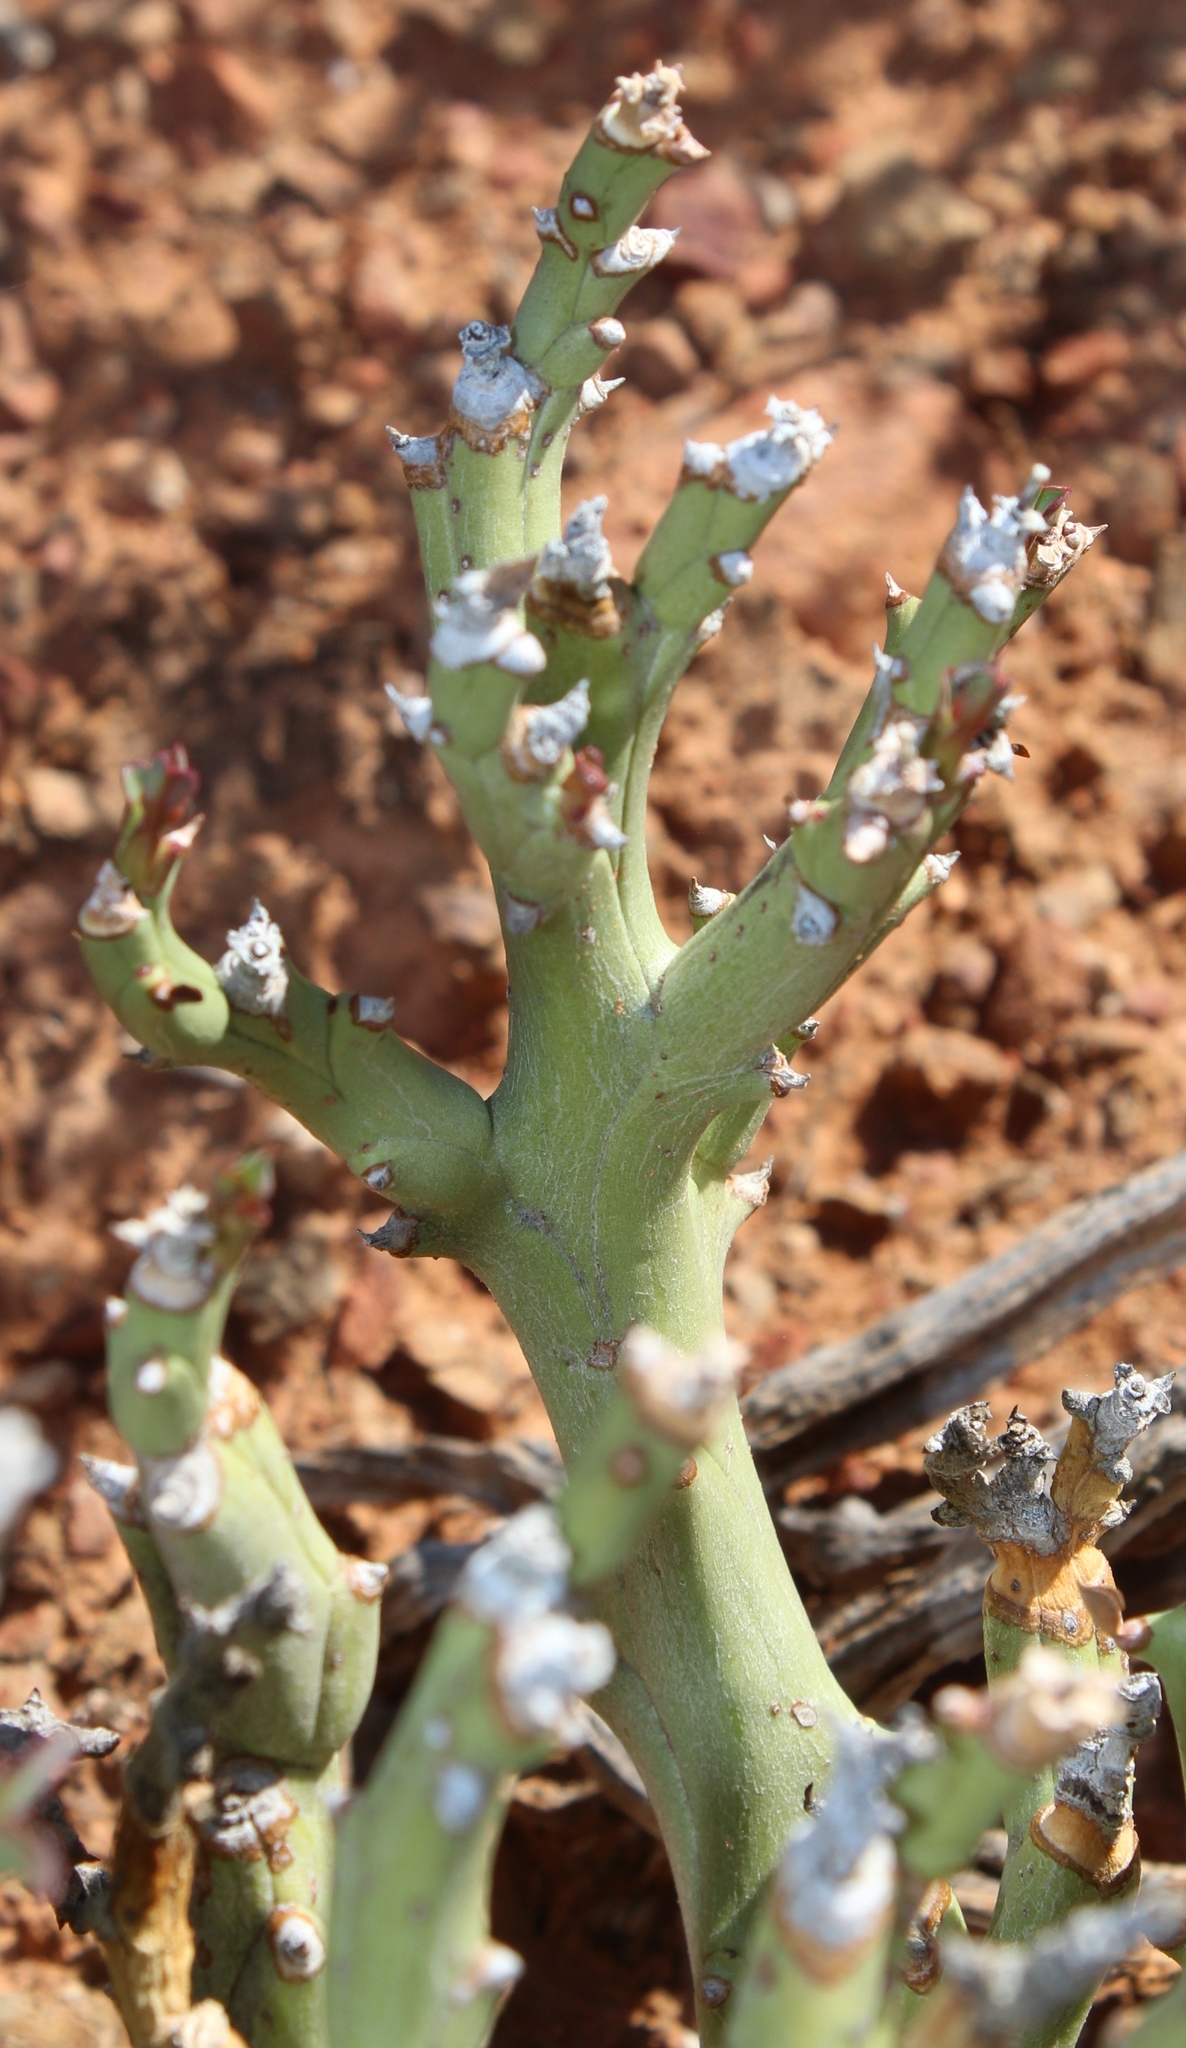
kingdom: Plantae
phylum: Tracheophyta
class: Magnoliopsida
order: Malpighiales
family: Euphorbiaceae
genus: Euphorbia
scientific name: Euphorbia hamata
